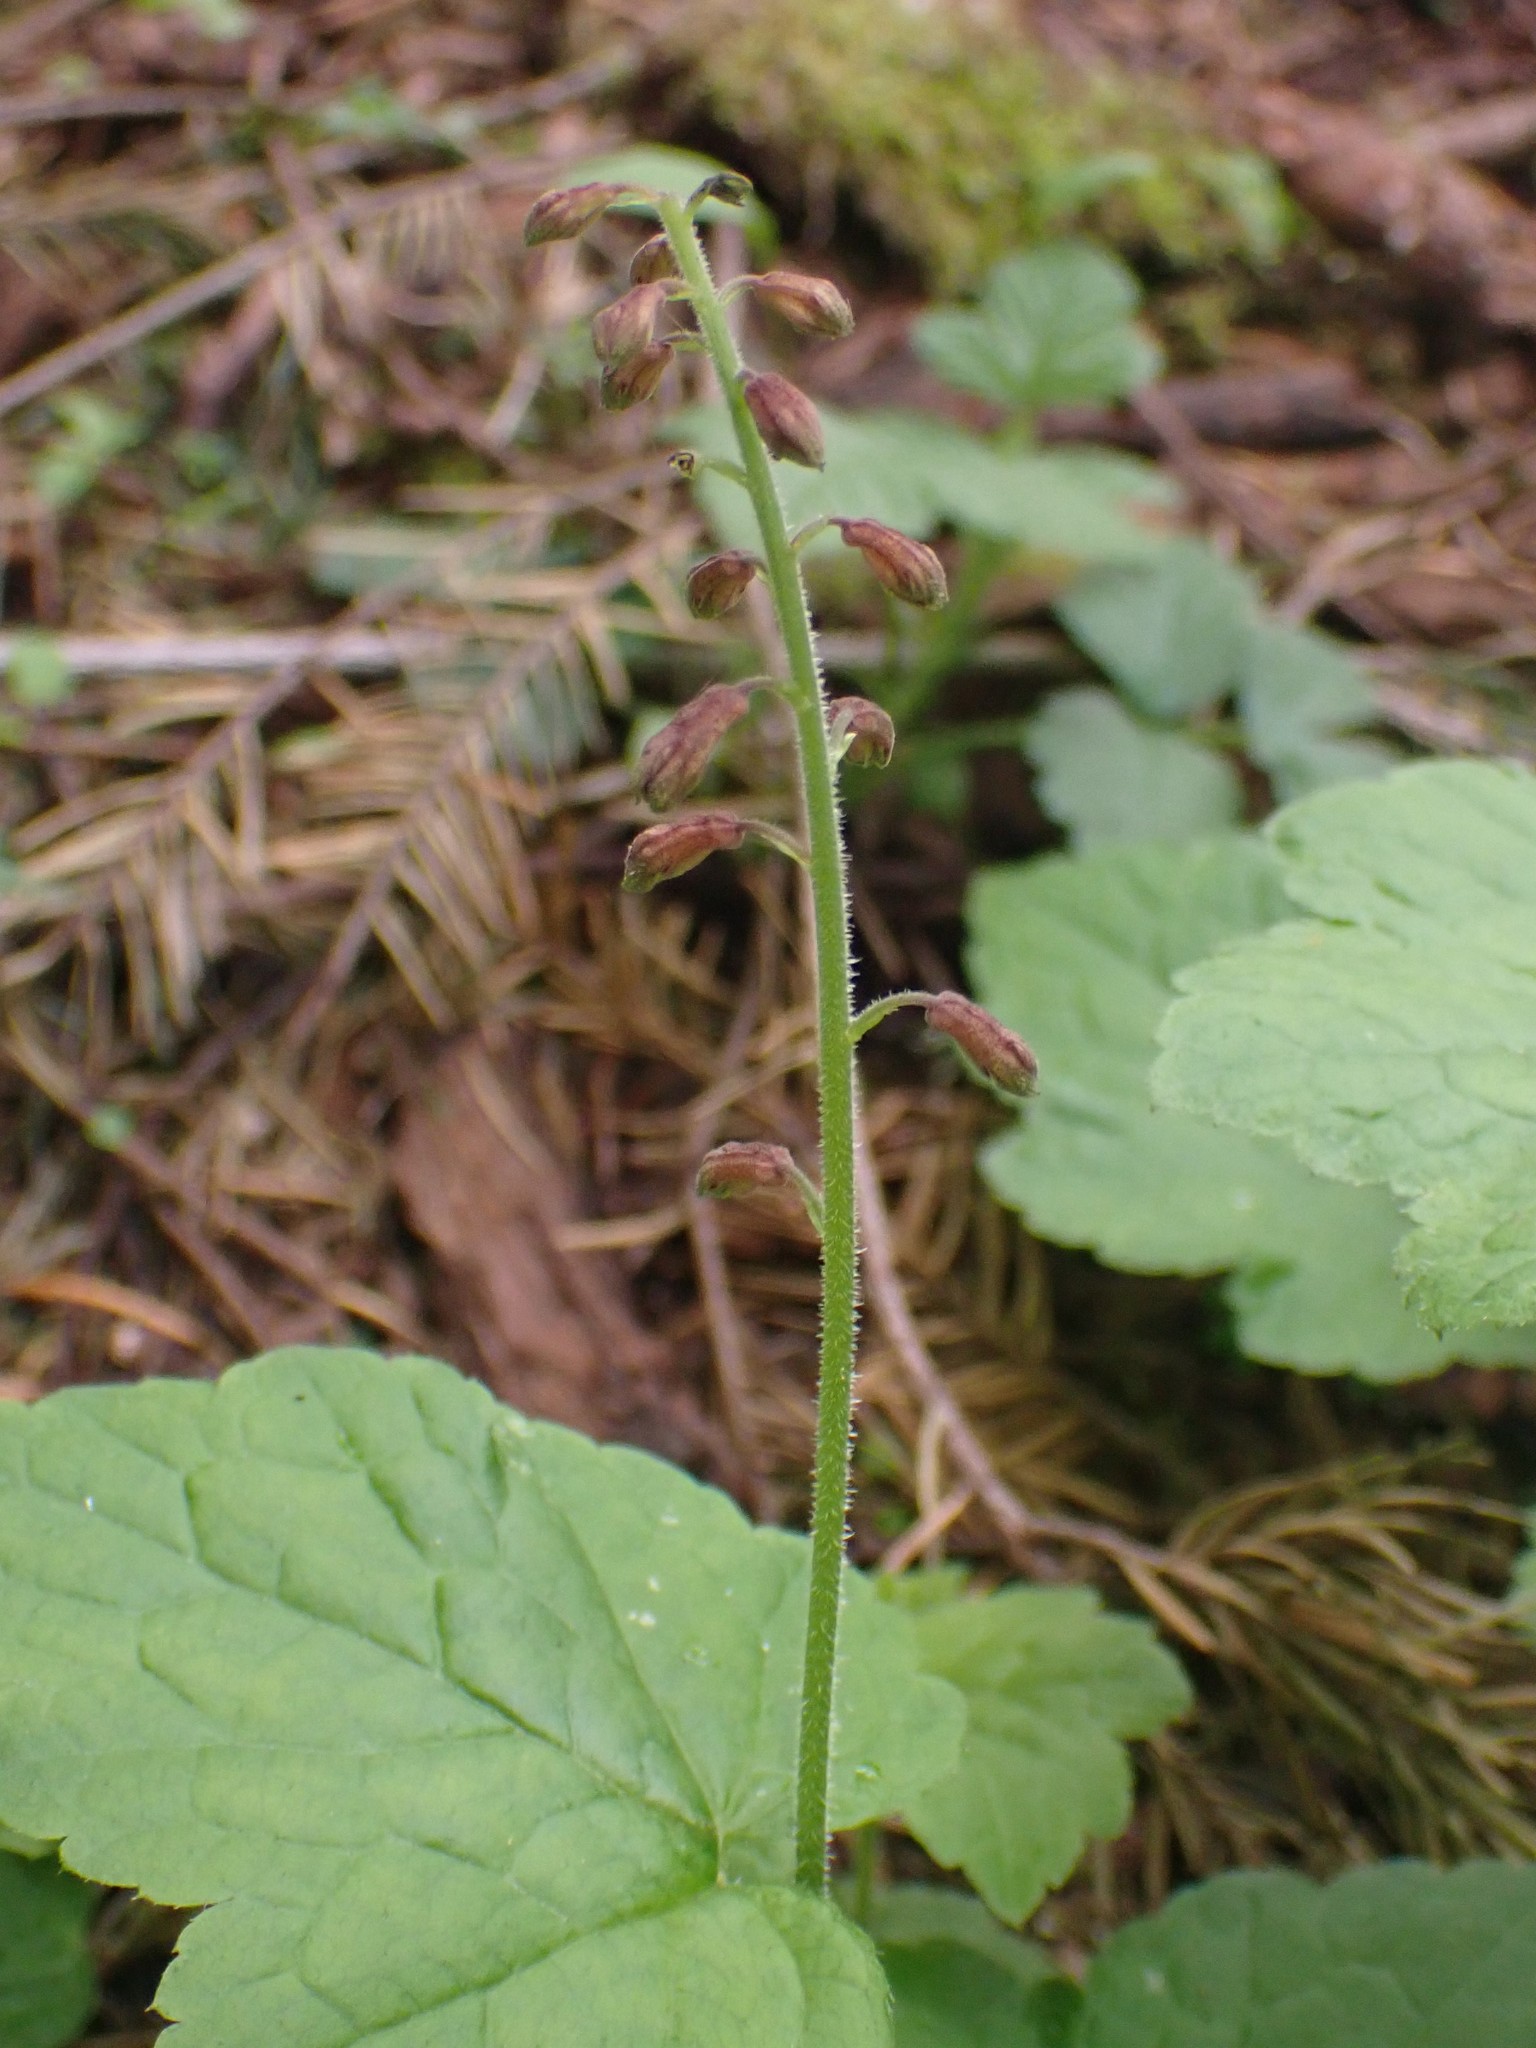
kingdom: Plantae
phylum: Tracheophyta
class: Magnoliopsida
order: Saxifragales
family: Saxifragaceae
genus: Tolmiea
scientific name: Tolmiea menziesii
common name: Pick-a-back-plant
